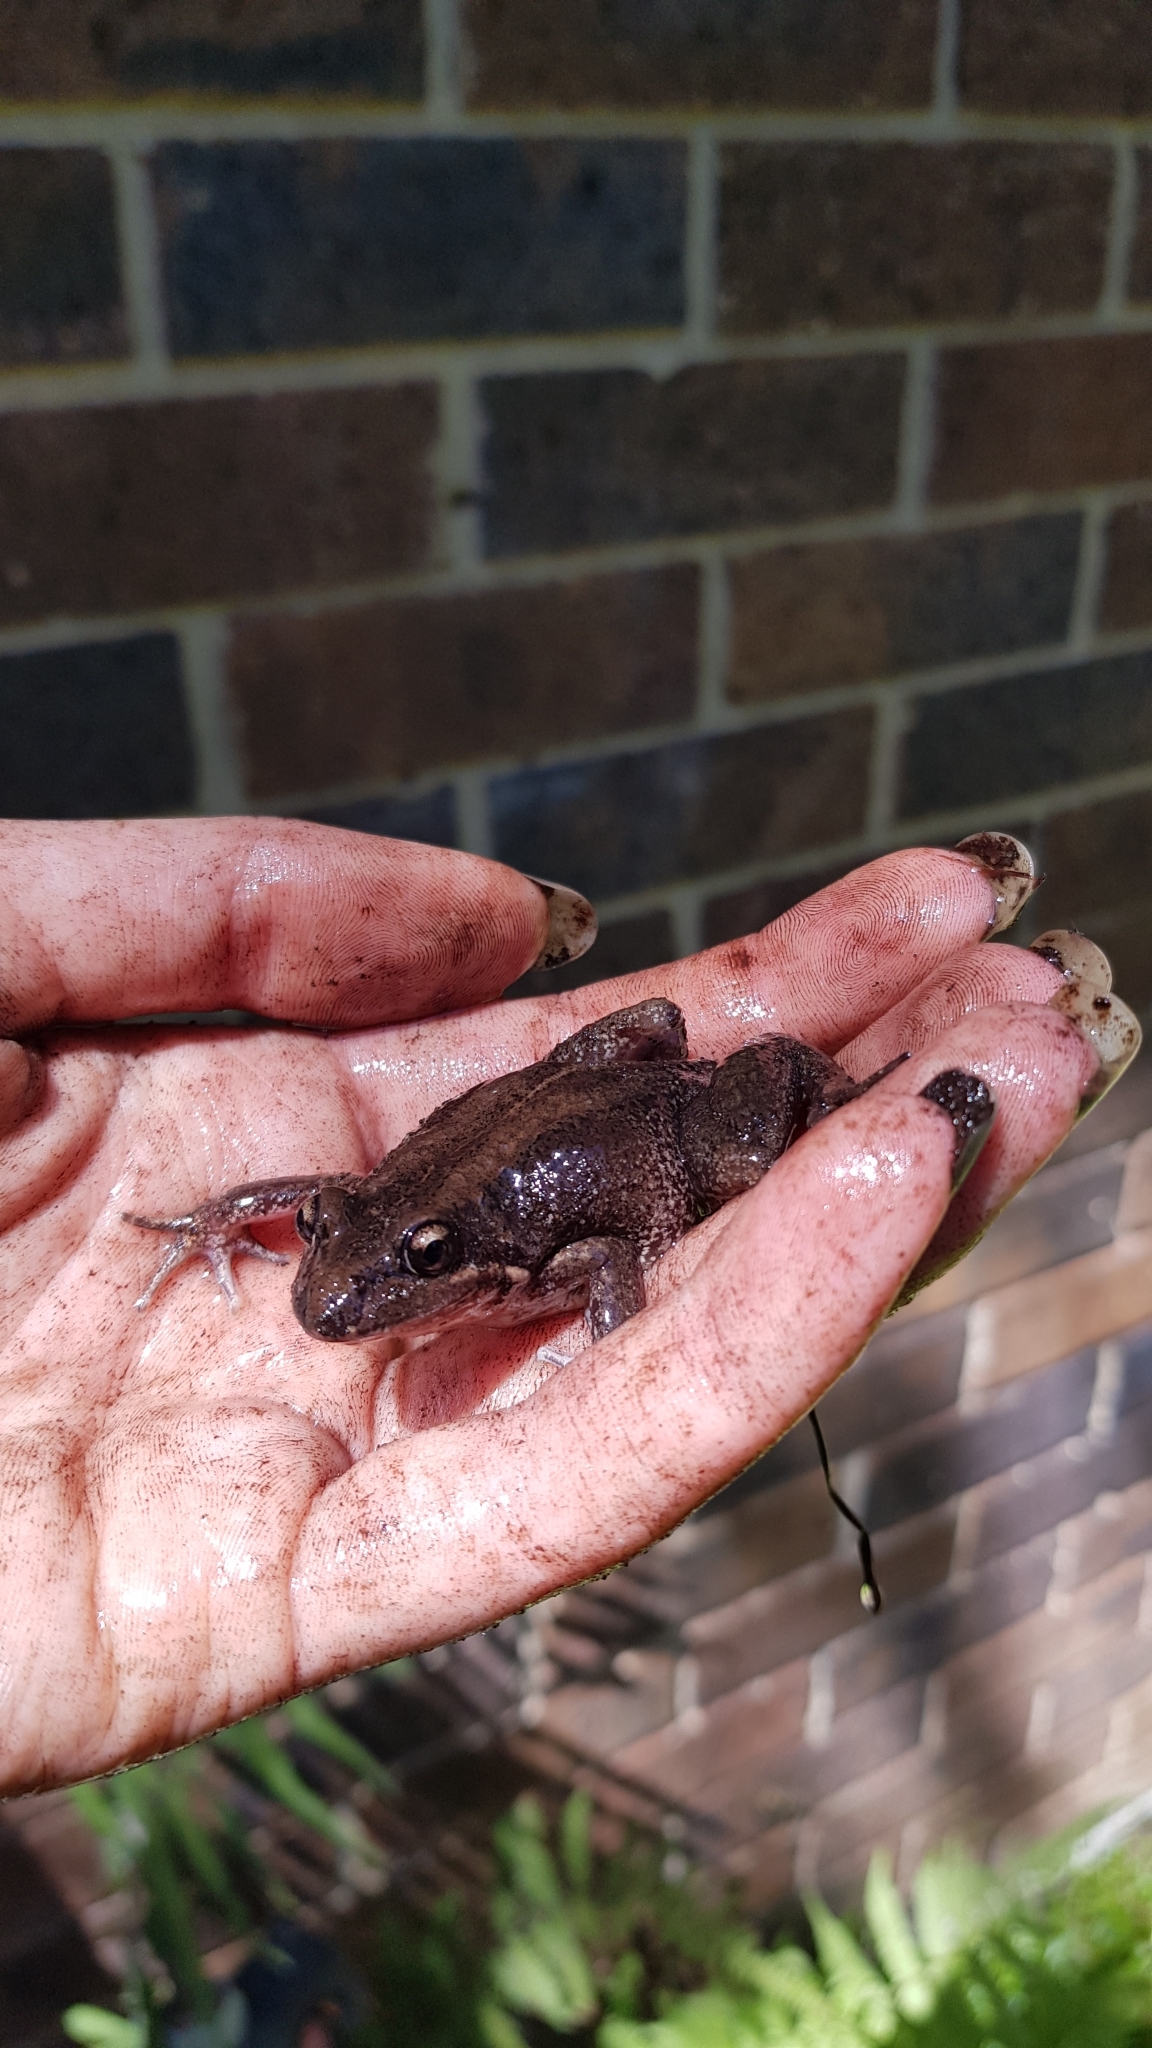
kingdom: Animalia
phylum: Chordata
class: Amphibia
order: Anura
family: Limnodynastidae
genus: Limnodynastes
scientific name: Limnodynastes peronii
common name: Brown frog
